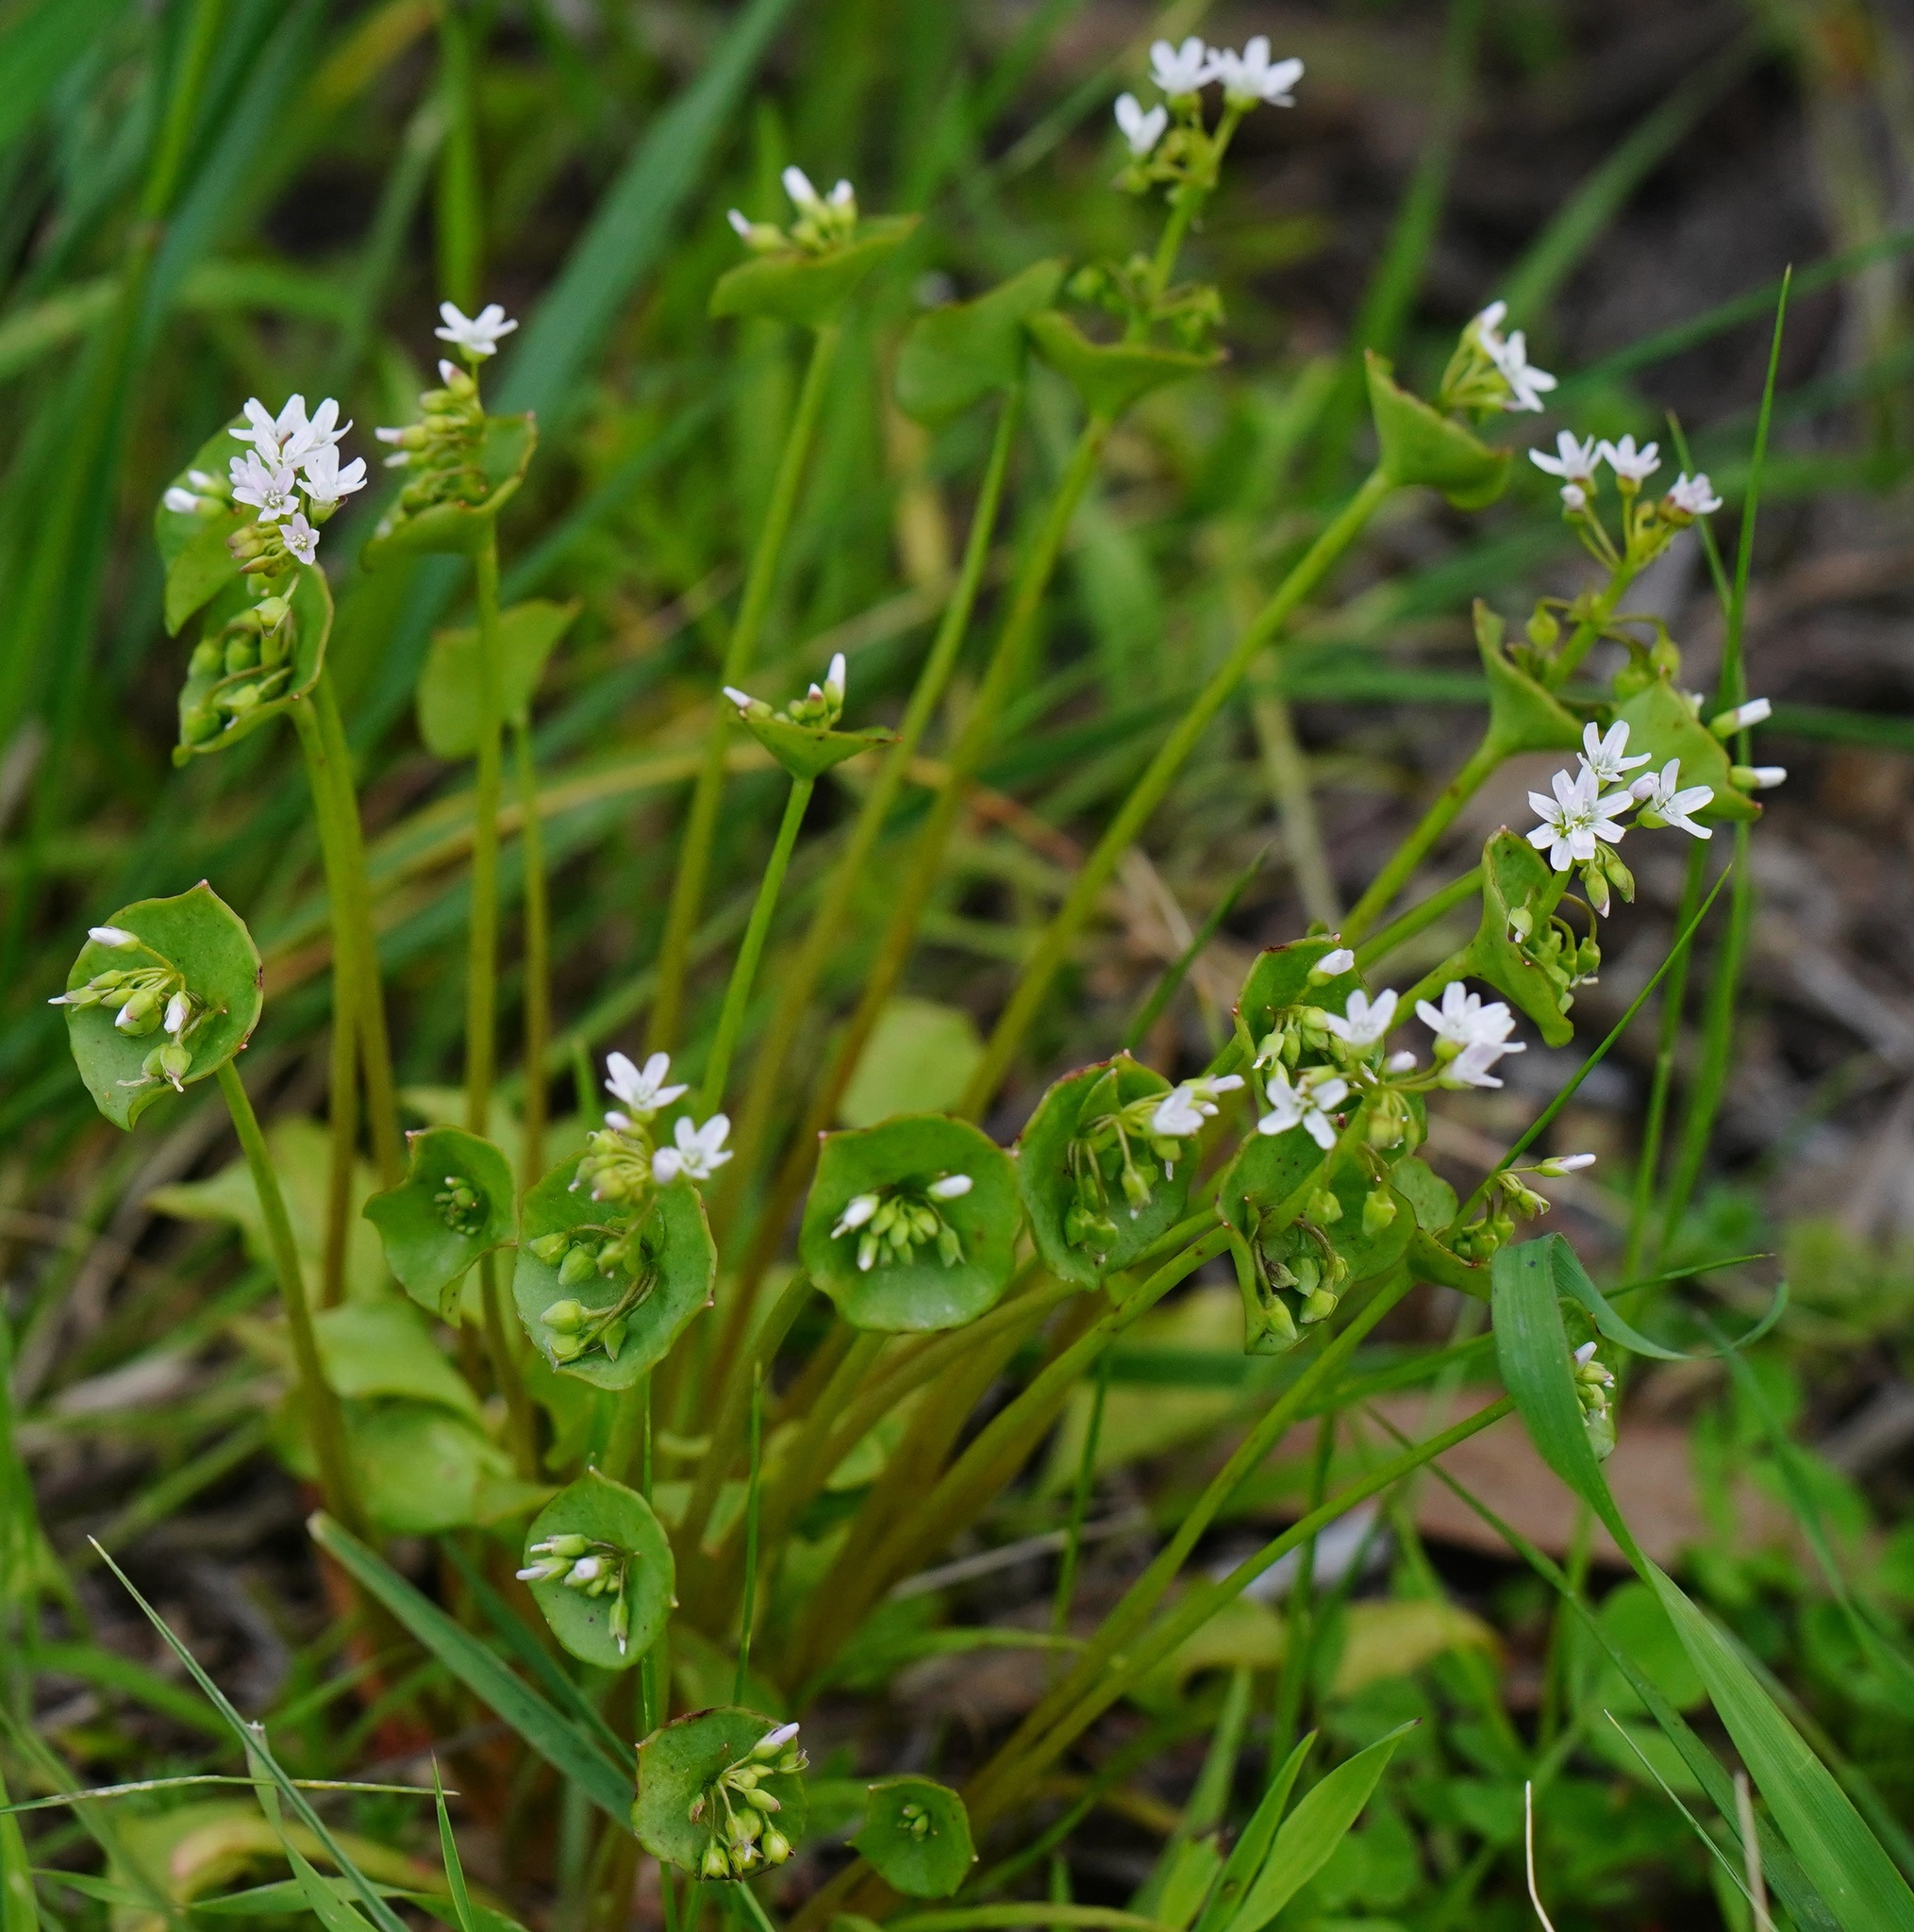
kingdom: Plantae
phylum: Tracheophyta
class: Magnoliopsida
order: Caryophyllales
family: Montiaceae
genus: Claytonia
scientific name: Claytonia perfoliata
